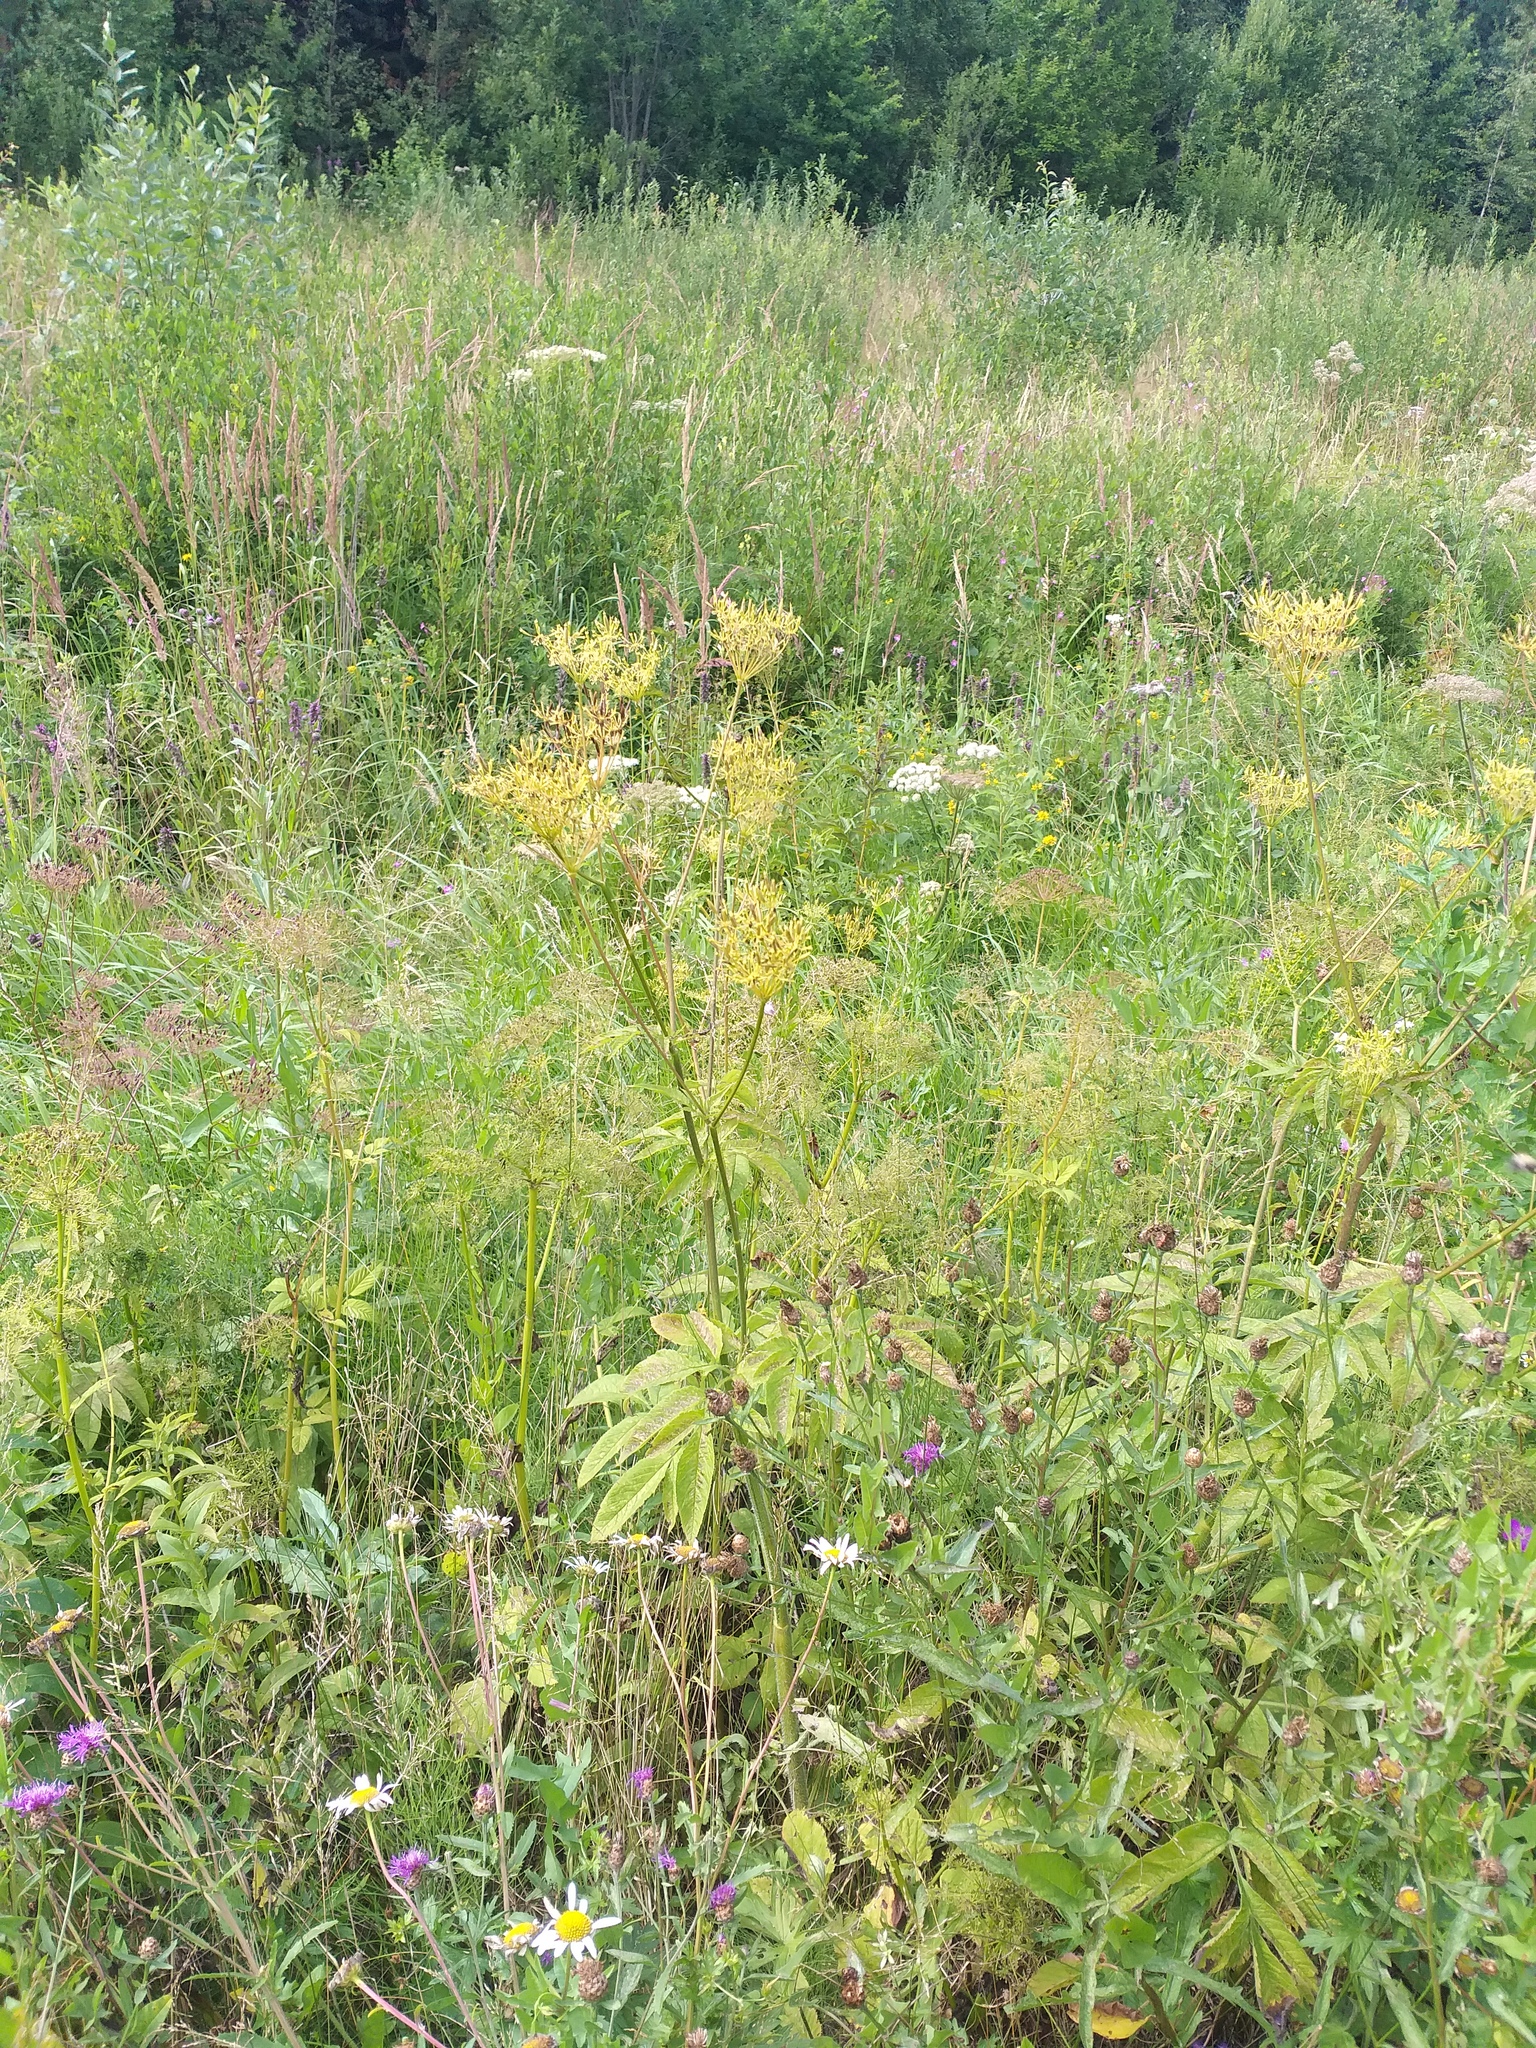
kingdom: Plantae
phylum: Tracheophyta
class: Magnoliopsida
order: Apiales
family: Apiaceae
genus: Chaerophyllum
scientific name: Chaerophyllum aromaticum
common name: Broadleaf chervil
